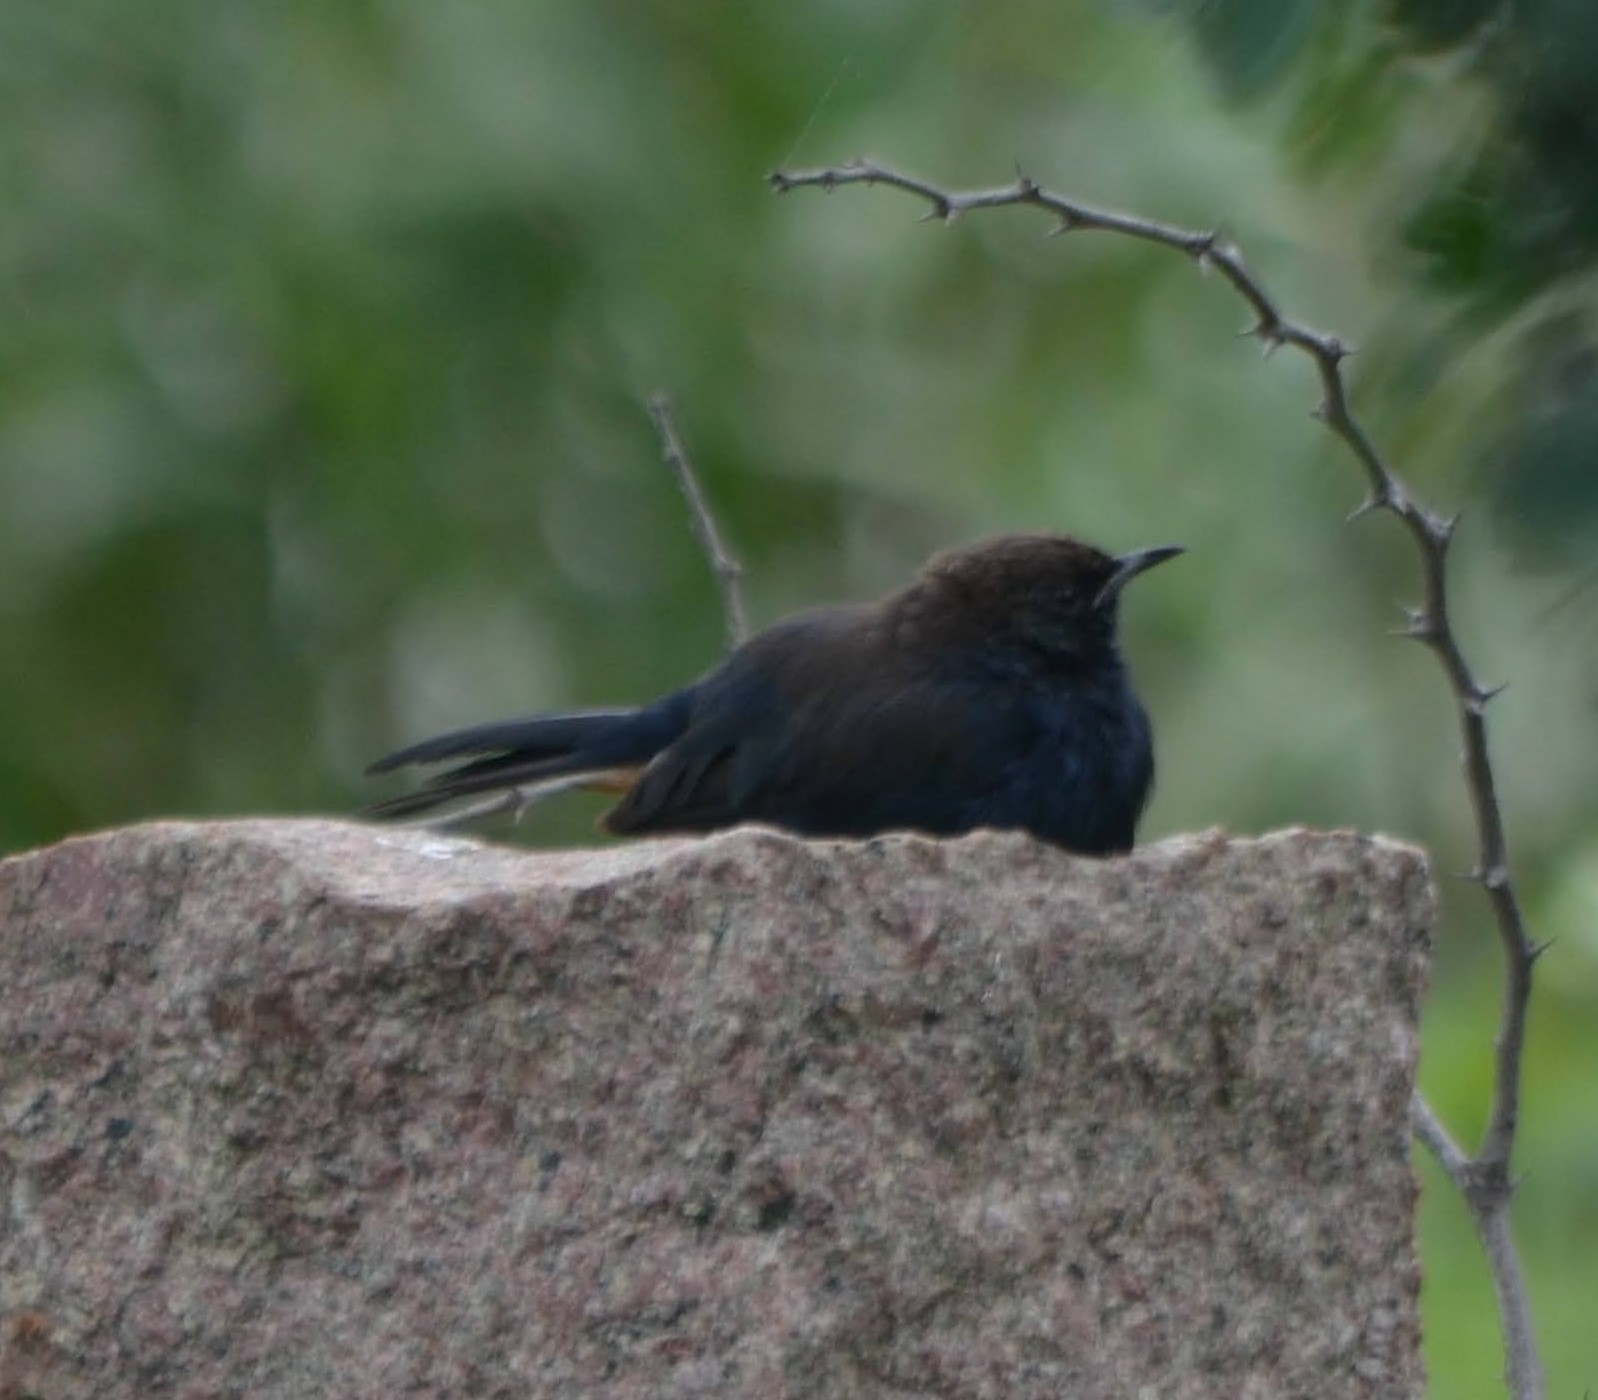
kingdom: Animalia
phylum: Chordata
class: Aves
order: Passeriformes
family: Muscicapidae
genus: Saxicoloides
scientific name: Saxicoloides fulicatus
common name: Indian robin
